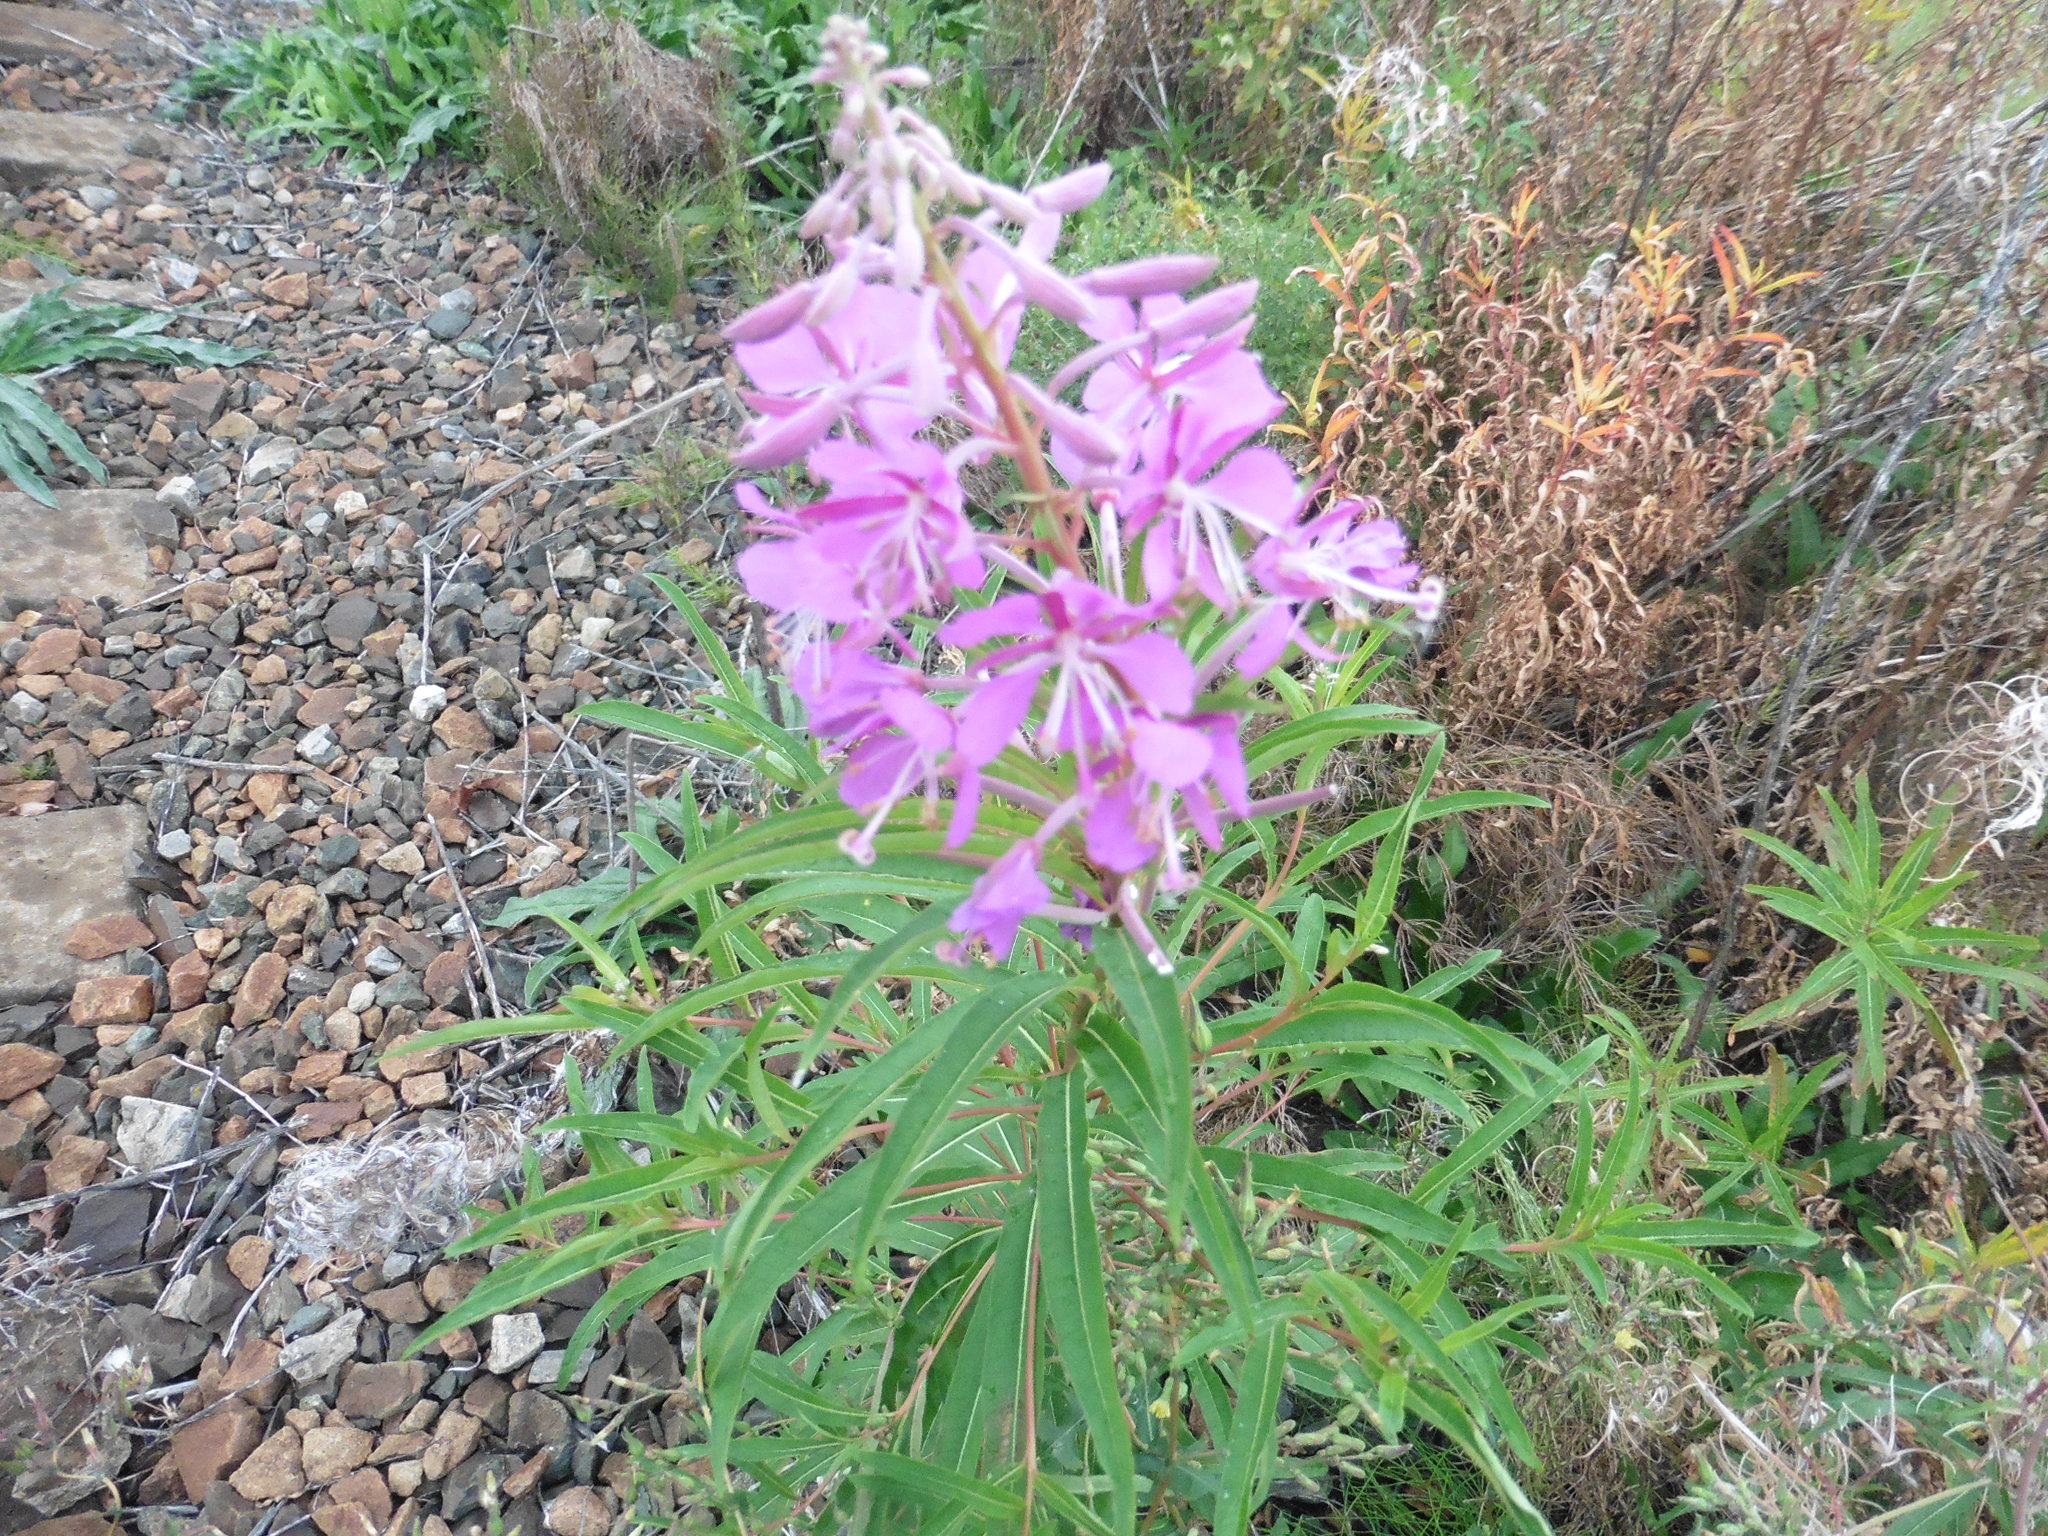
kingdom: Plantae
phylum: Tracheophyta
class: Magnoliopsida
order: Myrtales
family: Onagraceae
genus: Chamaenerion
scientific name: Chamaenerion angustifolium
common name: Fireweed
